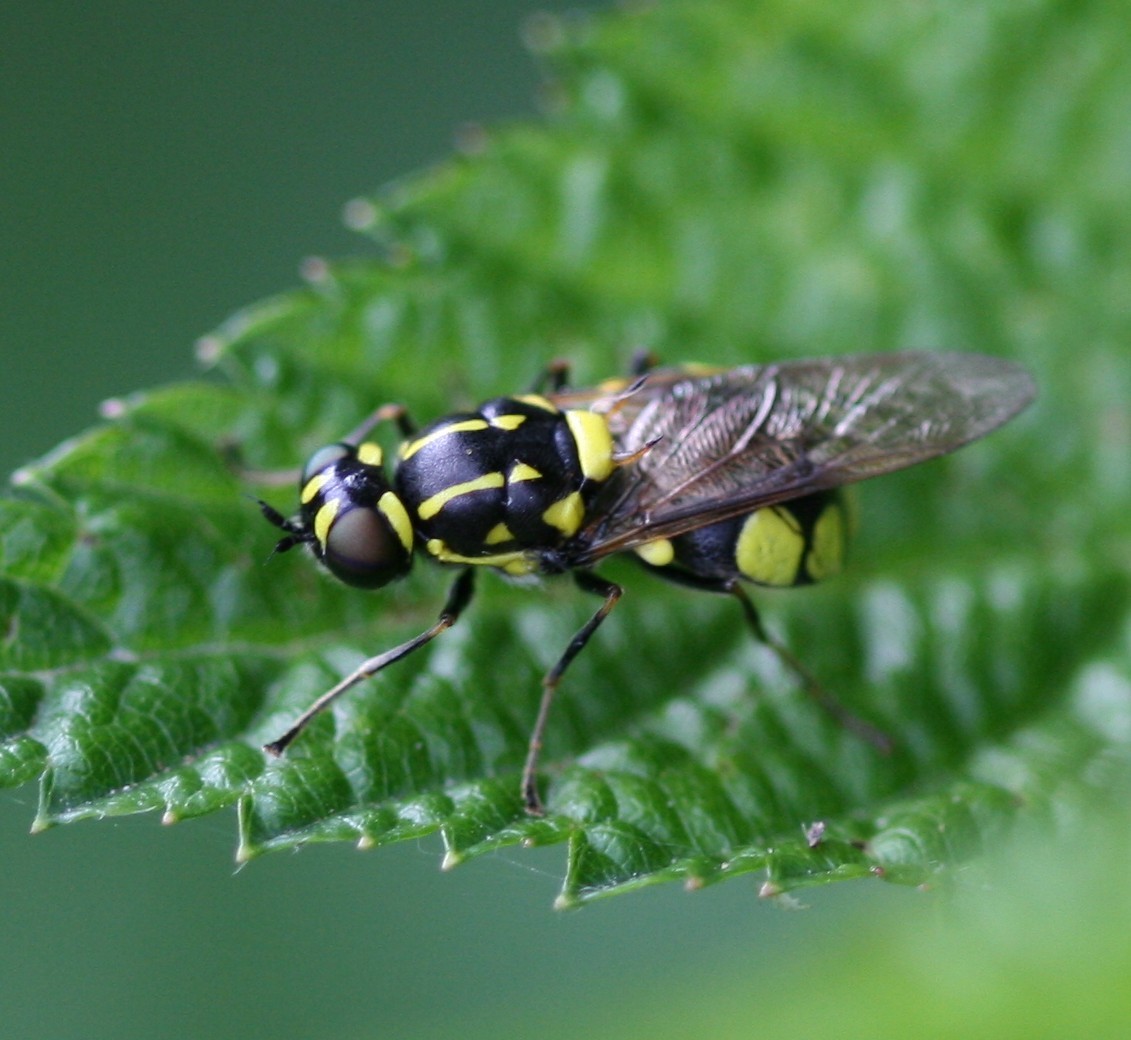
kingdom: Animalia
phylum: Arthropoda
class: Insecta
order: Diptera
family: Stratiomyidae
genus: Oxycera
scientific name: Oxycera dives
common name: Round-spotted major
